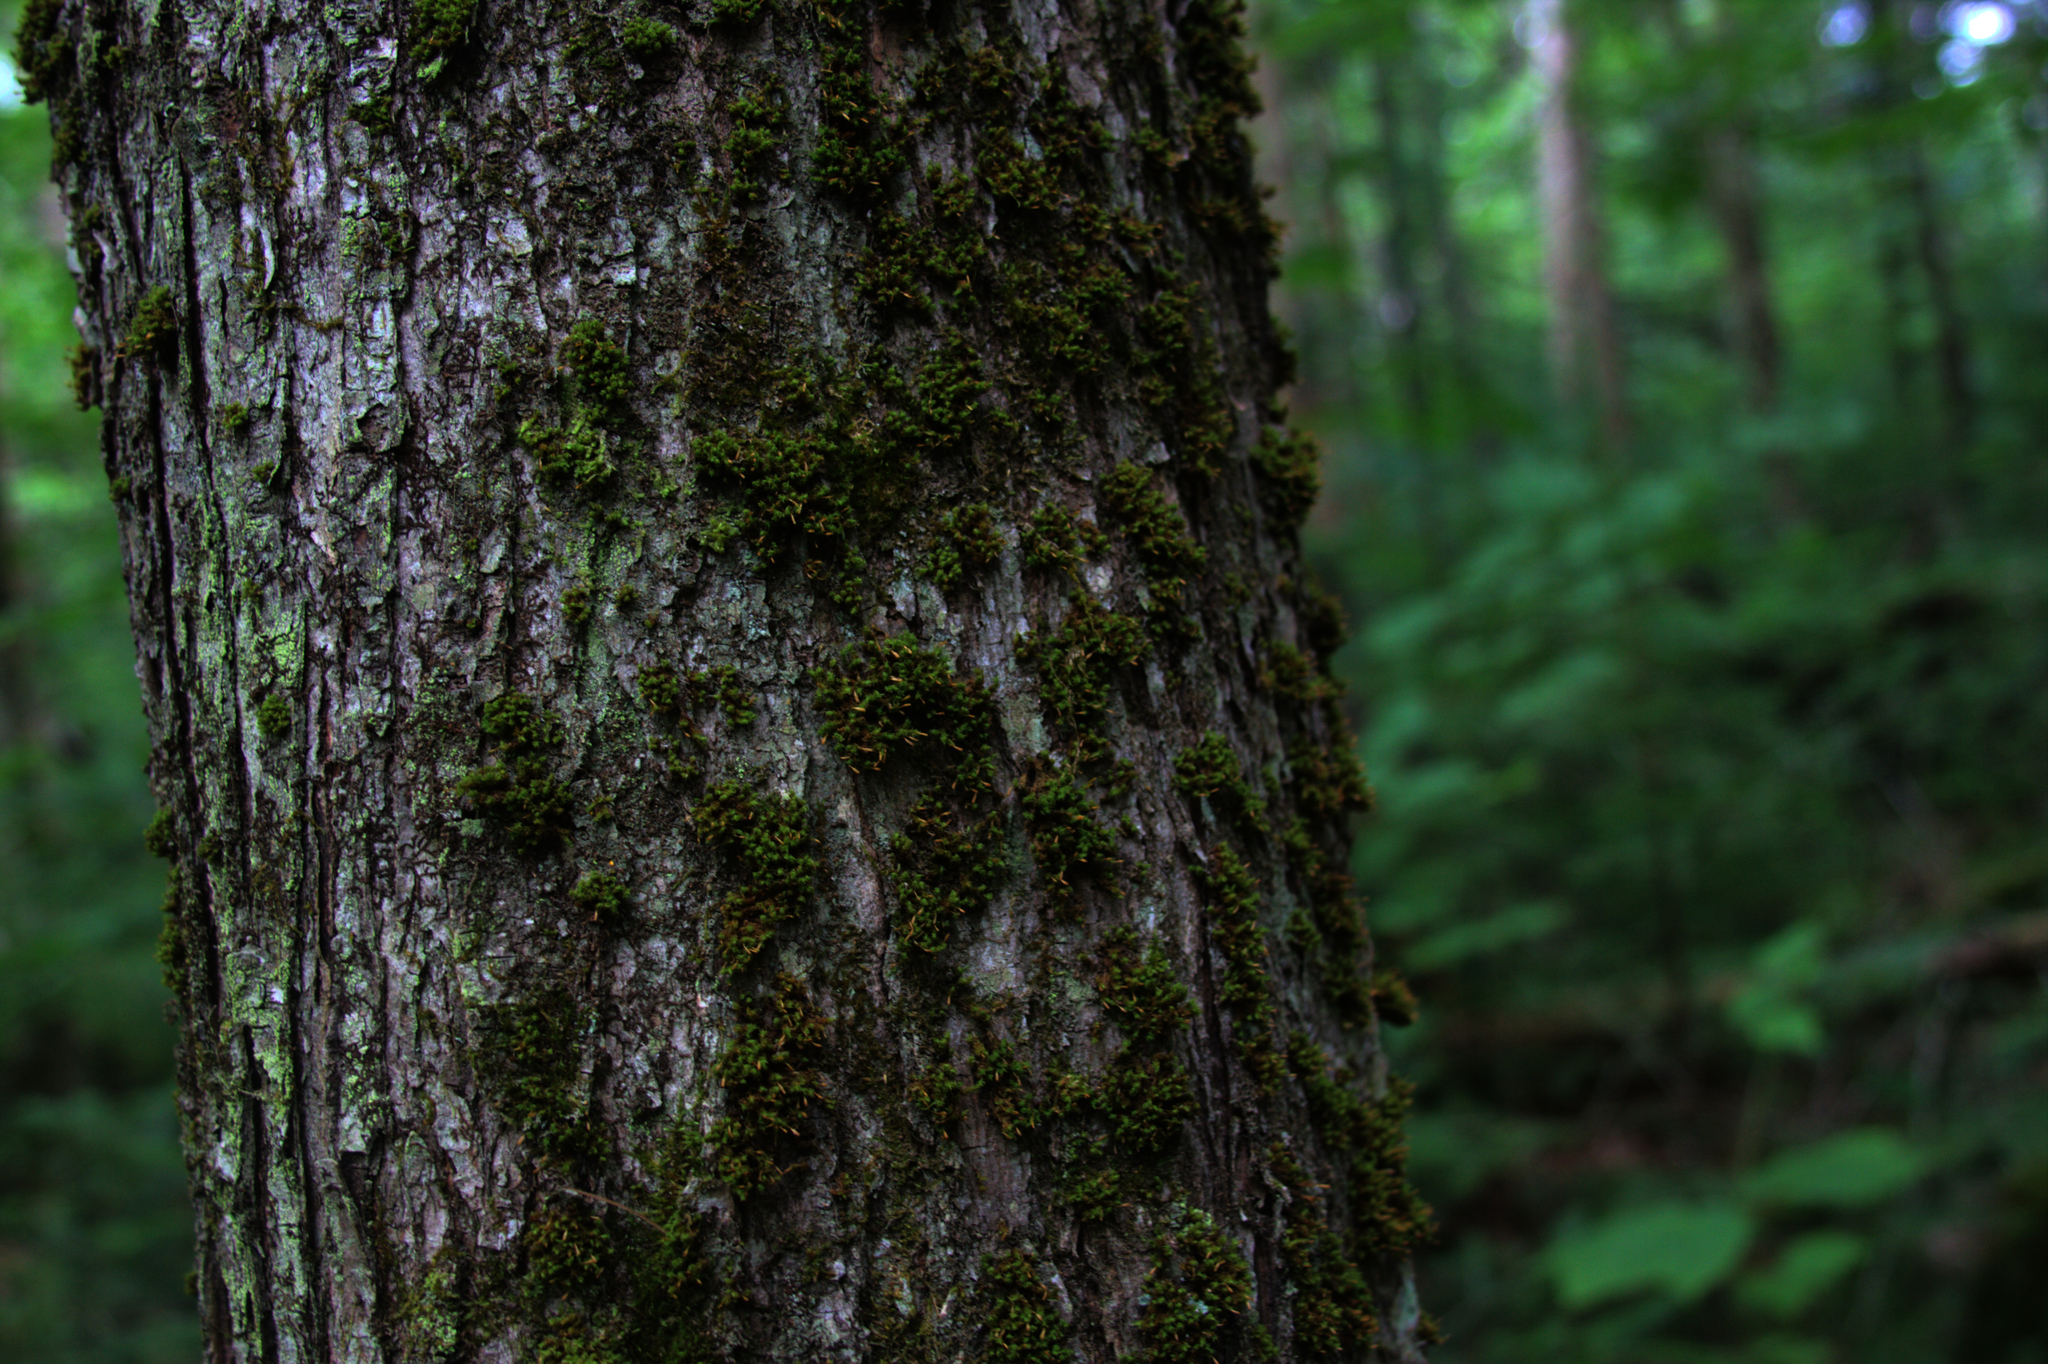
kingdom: Plantae
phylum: Bryophyta
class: Bryopsida
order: Orthotrichales
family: Orthotrichaceae
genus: Ulota
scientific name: Ulota crispa
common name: Crisped pincushion moss
